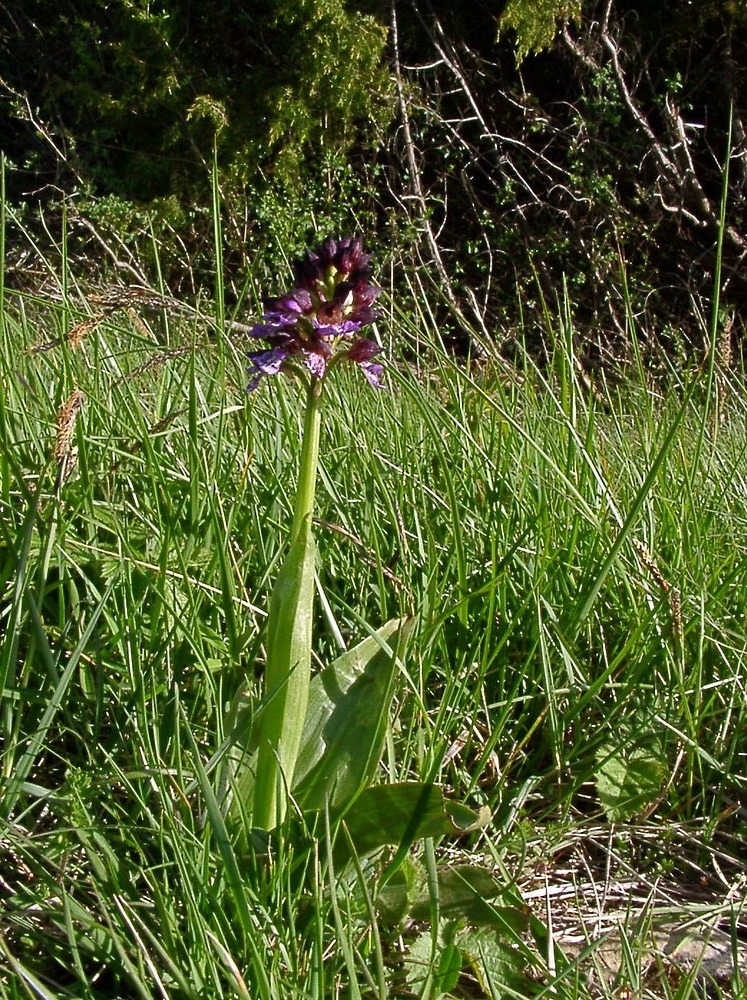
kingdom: Plantae
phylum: Tracheophyta
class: Liliopsida
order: Asparagales
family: Orchidaceae
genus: Orchis
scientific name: Orchis purpurea
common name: Lady orchid
